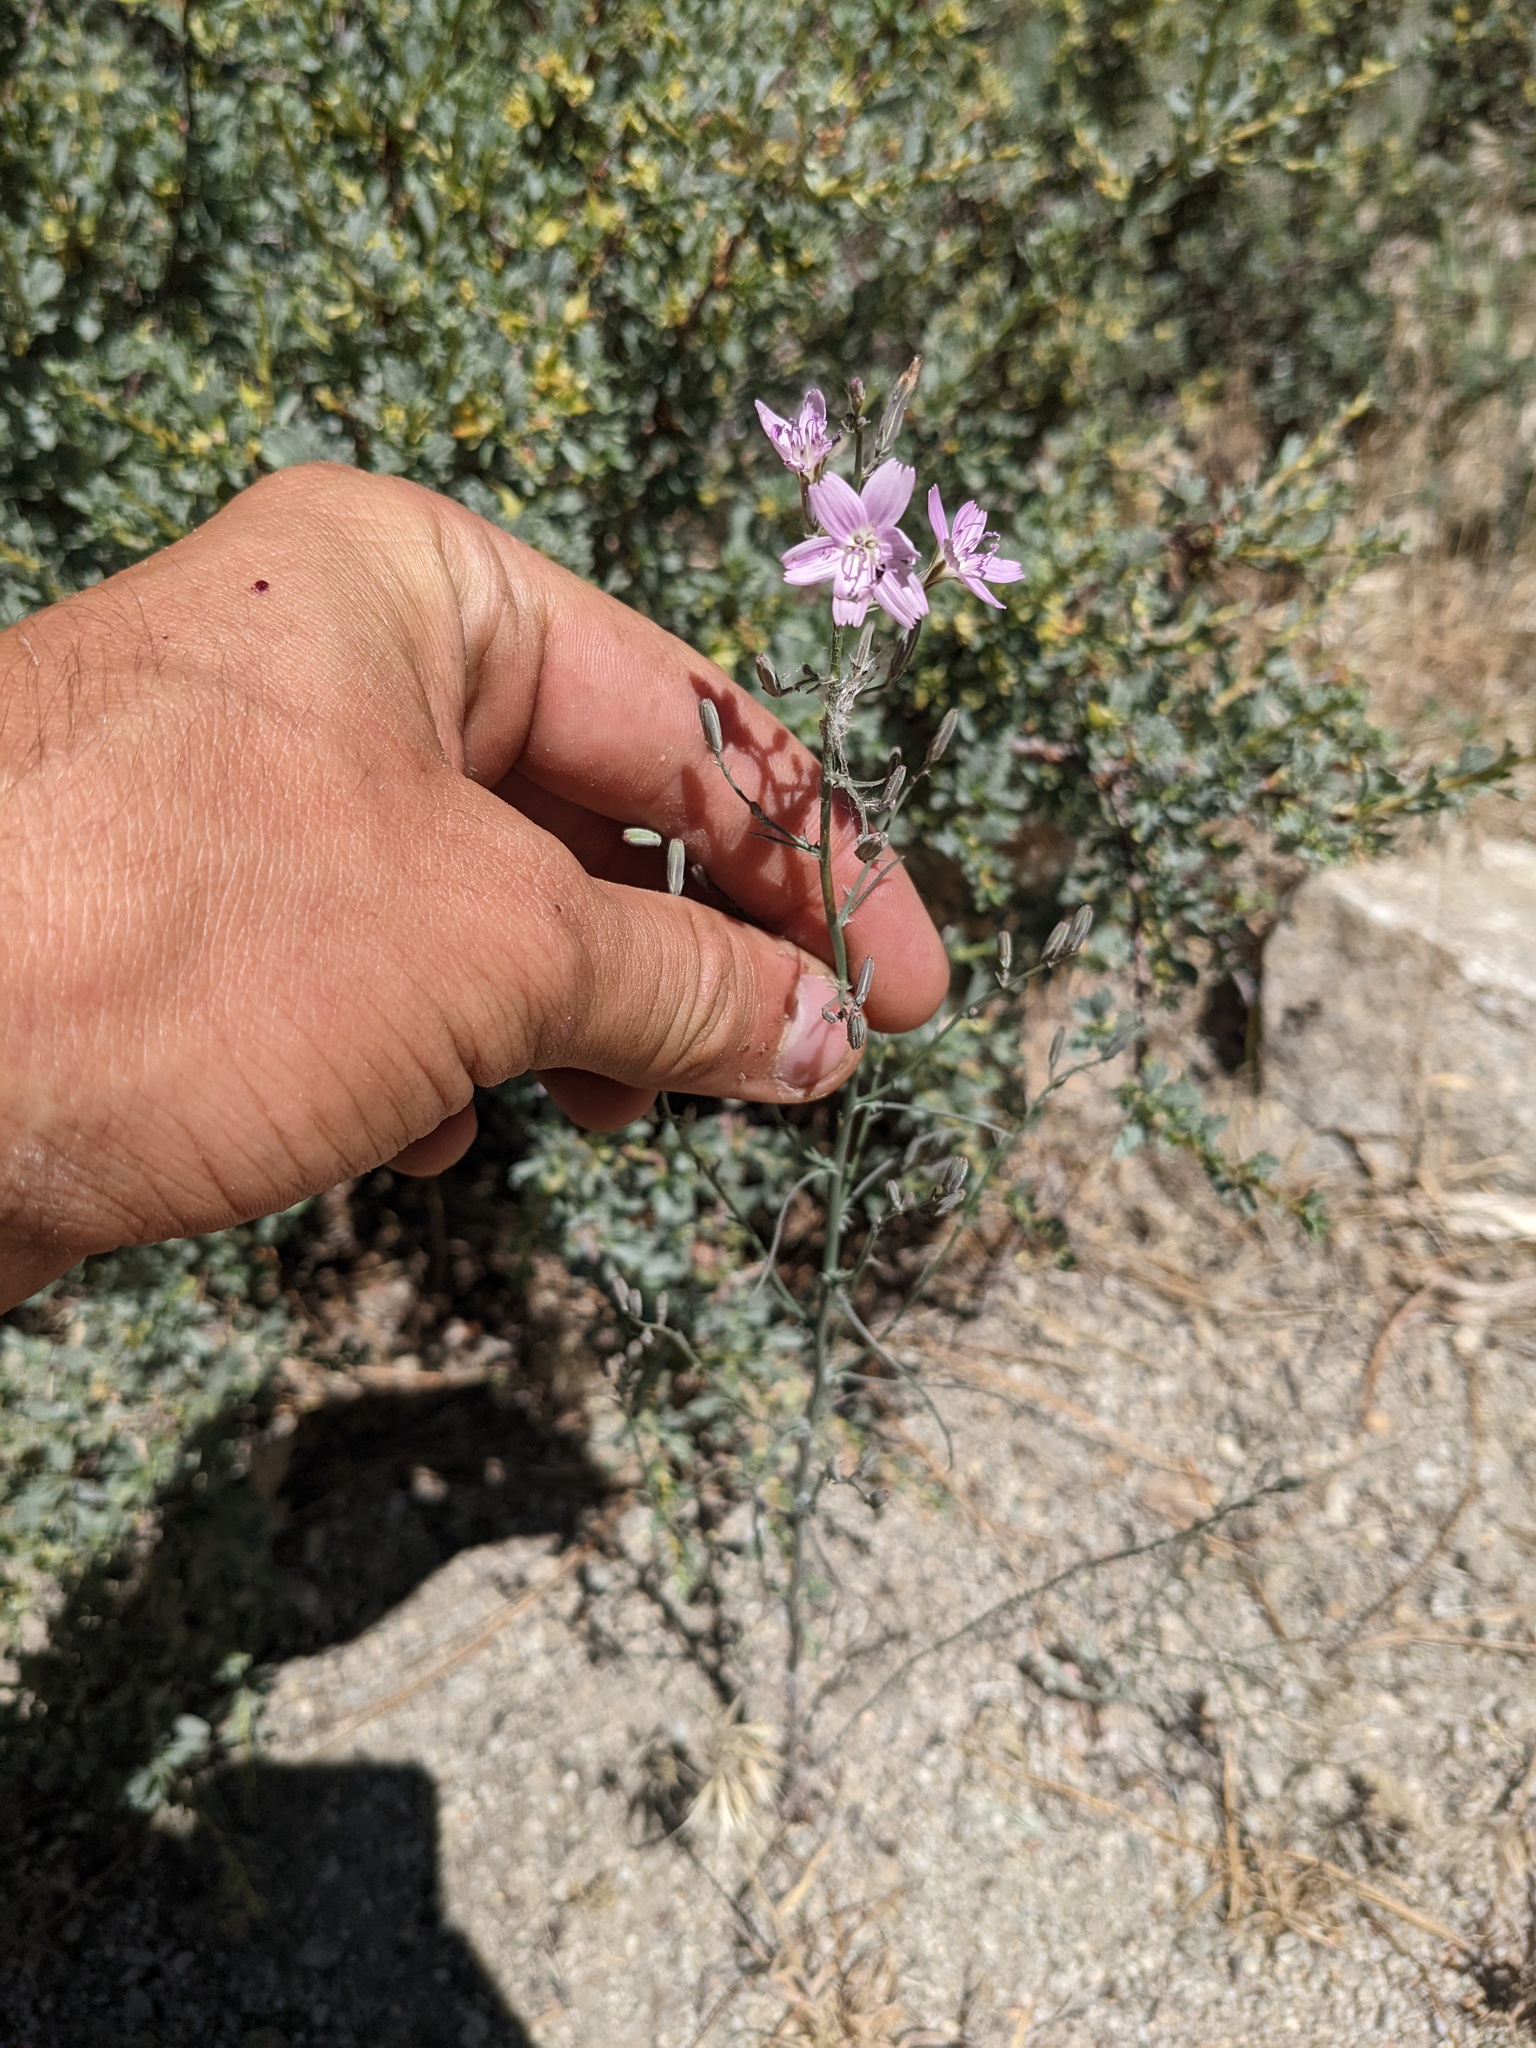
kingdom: Plantae
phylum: Tracheophyta
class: Magnoliopsida
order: Asterales
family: Asteraceae
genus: Stephanomeria
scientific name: Stephanomeria exigua
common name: Small wirelettuce
